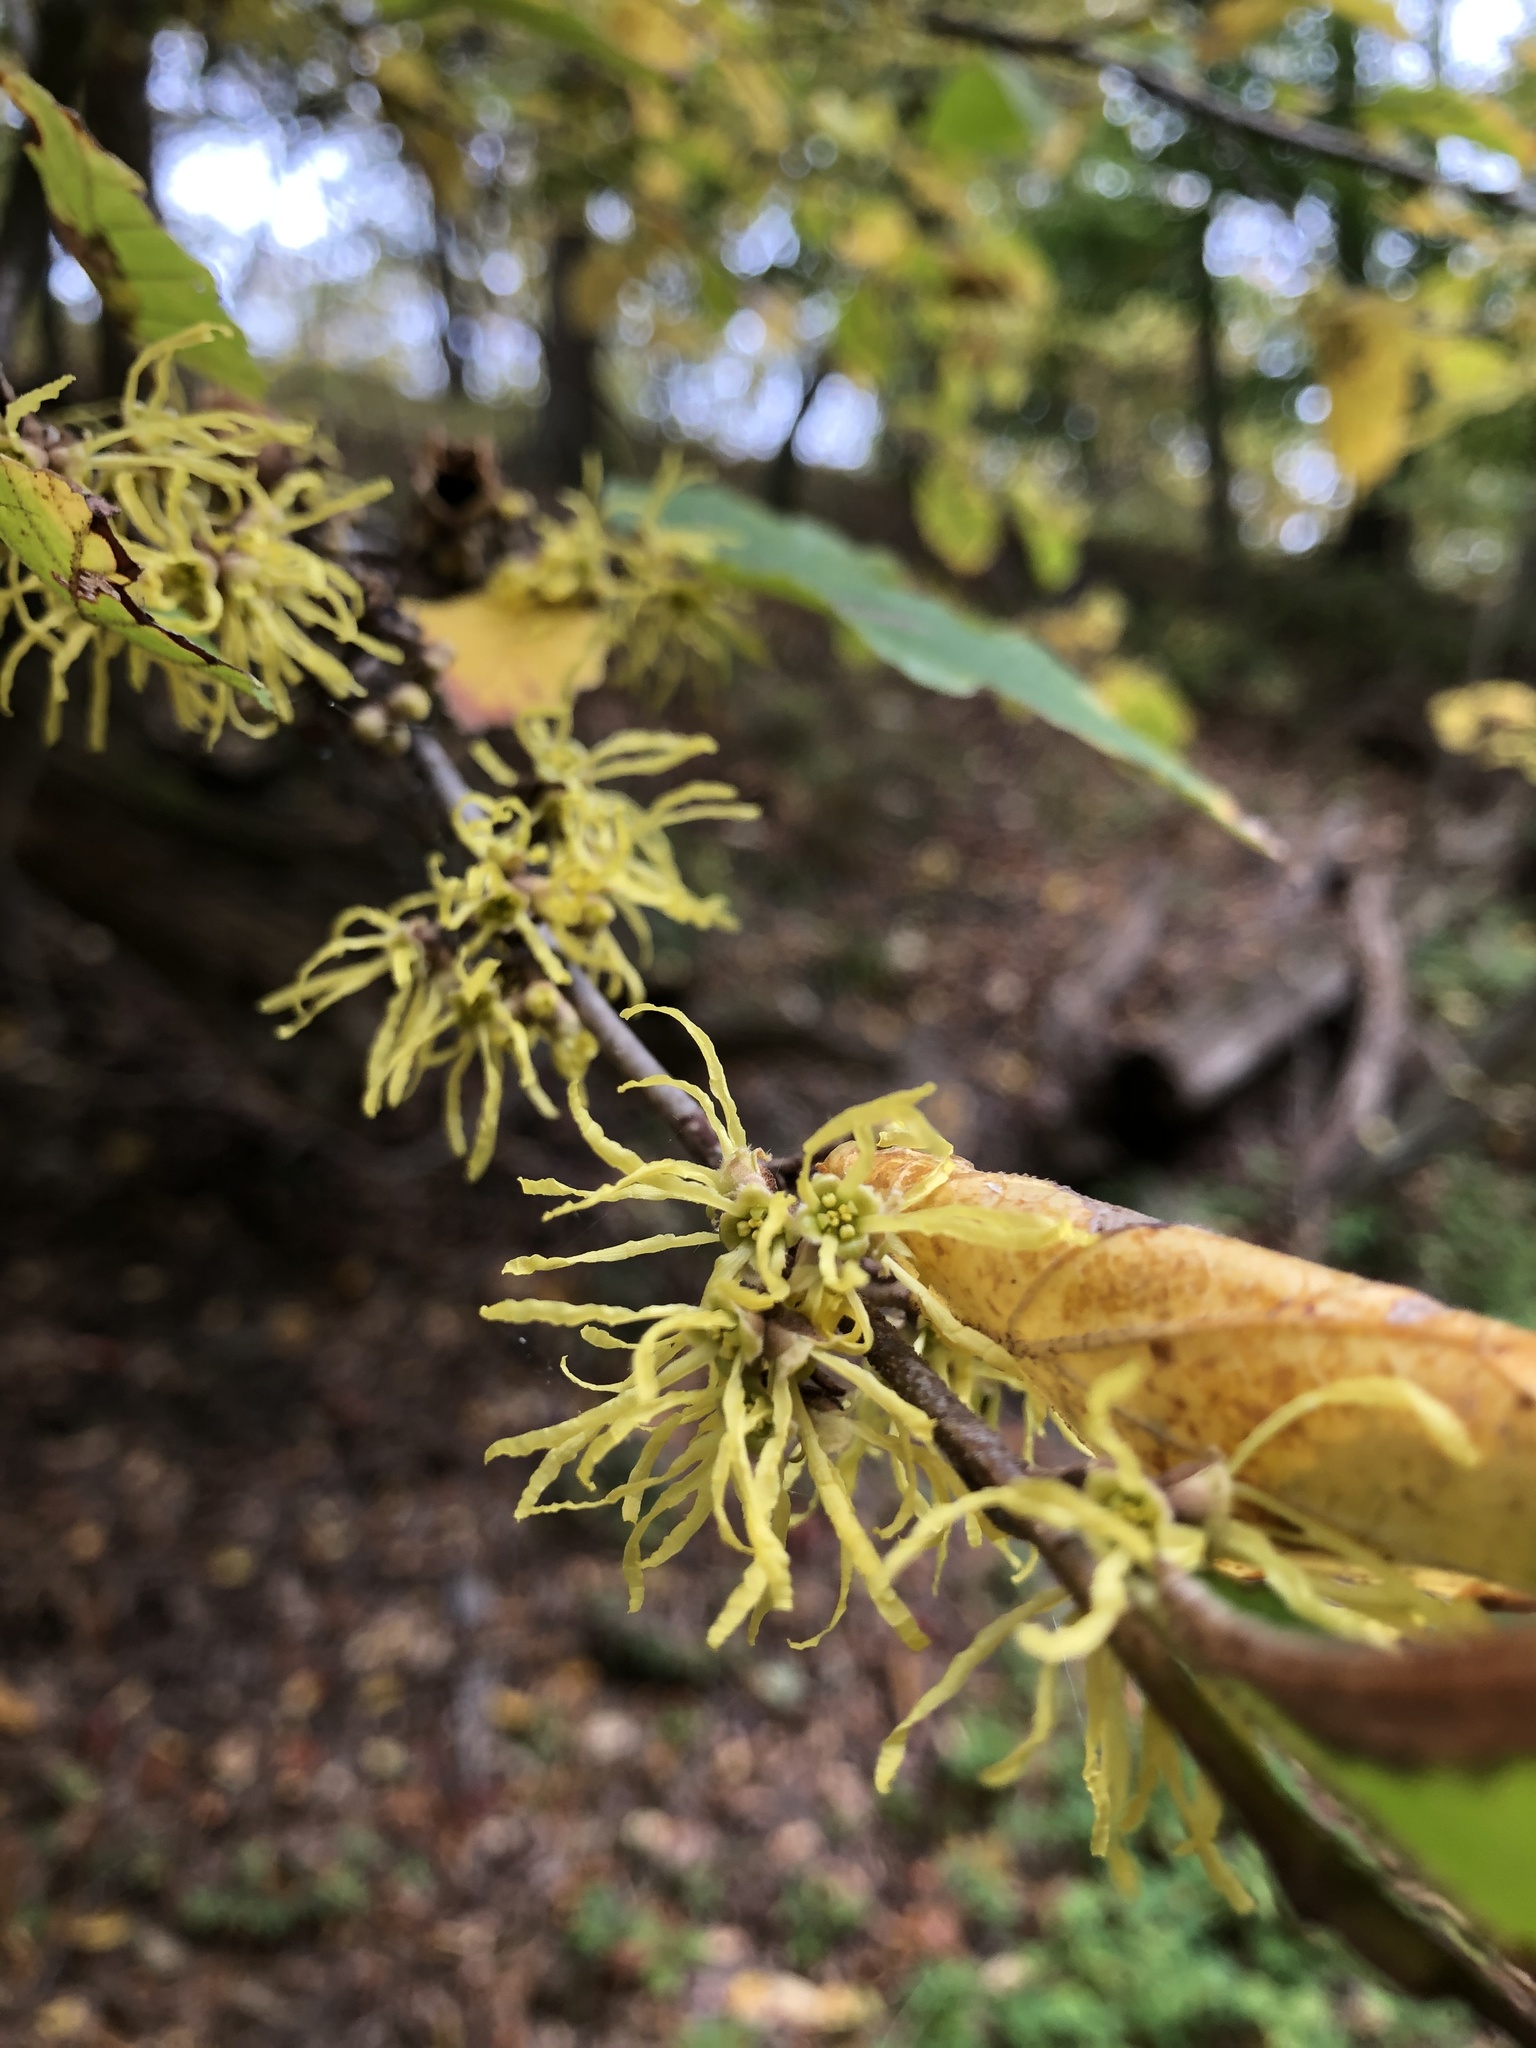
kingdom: Plantae
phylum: Tracheophyta
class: Magnoliopsida
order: Saxifragales
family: Hamamelidaceae
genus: Hamamelis
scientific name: Hamamelis virginiana
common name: Witch-hazel
